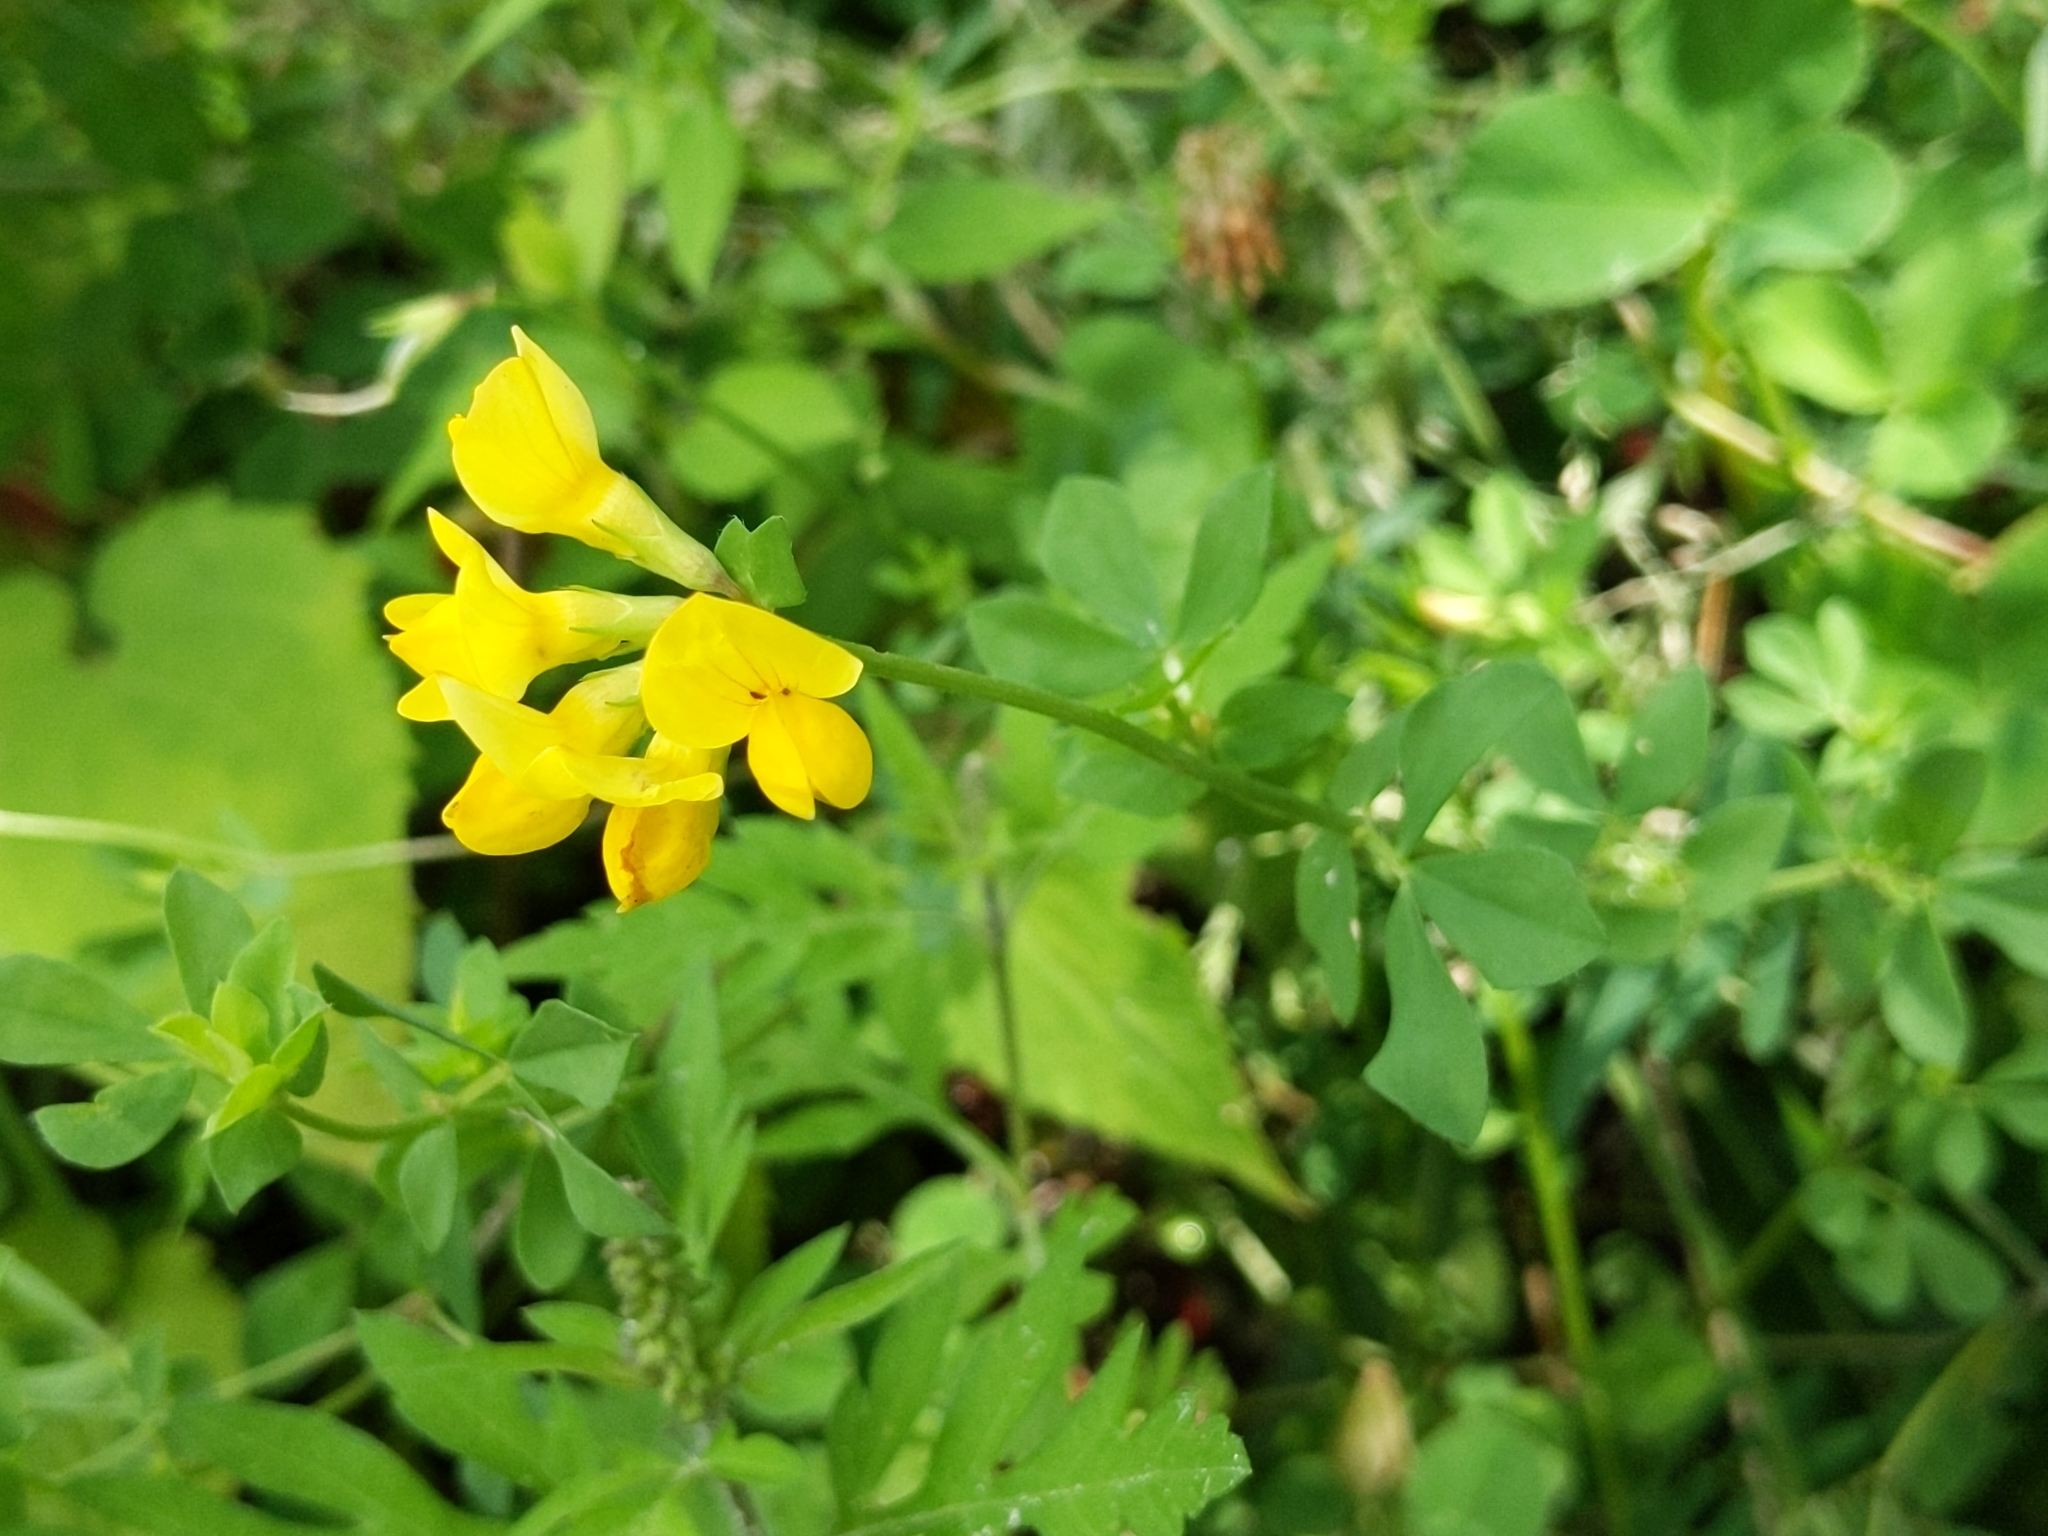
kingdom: Plantae
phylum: Tracheophyta
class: Magnoliopsida
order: Fabales
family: Fabaceae
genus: Lotus
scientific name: Lotus corniculatus
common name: Common bird's-foot-trefoil
